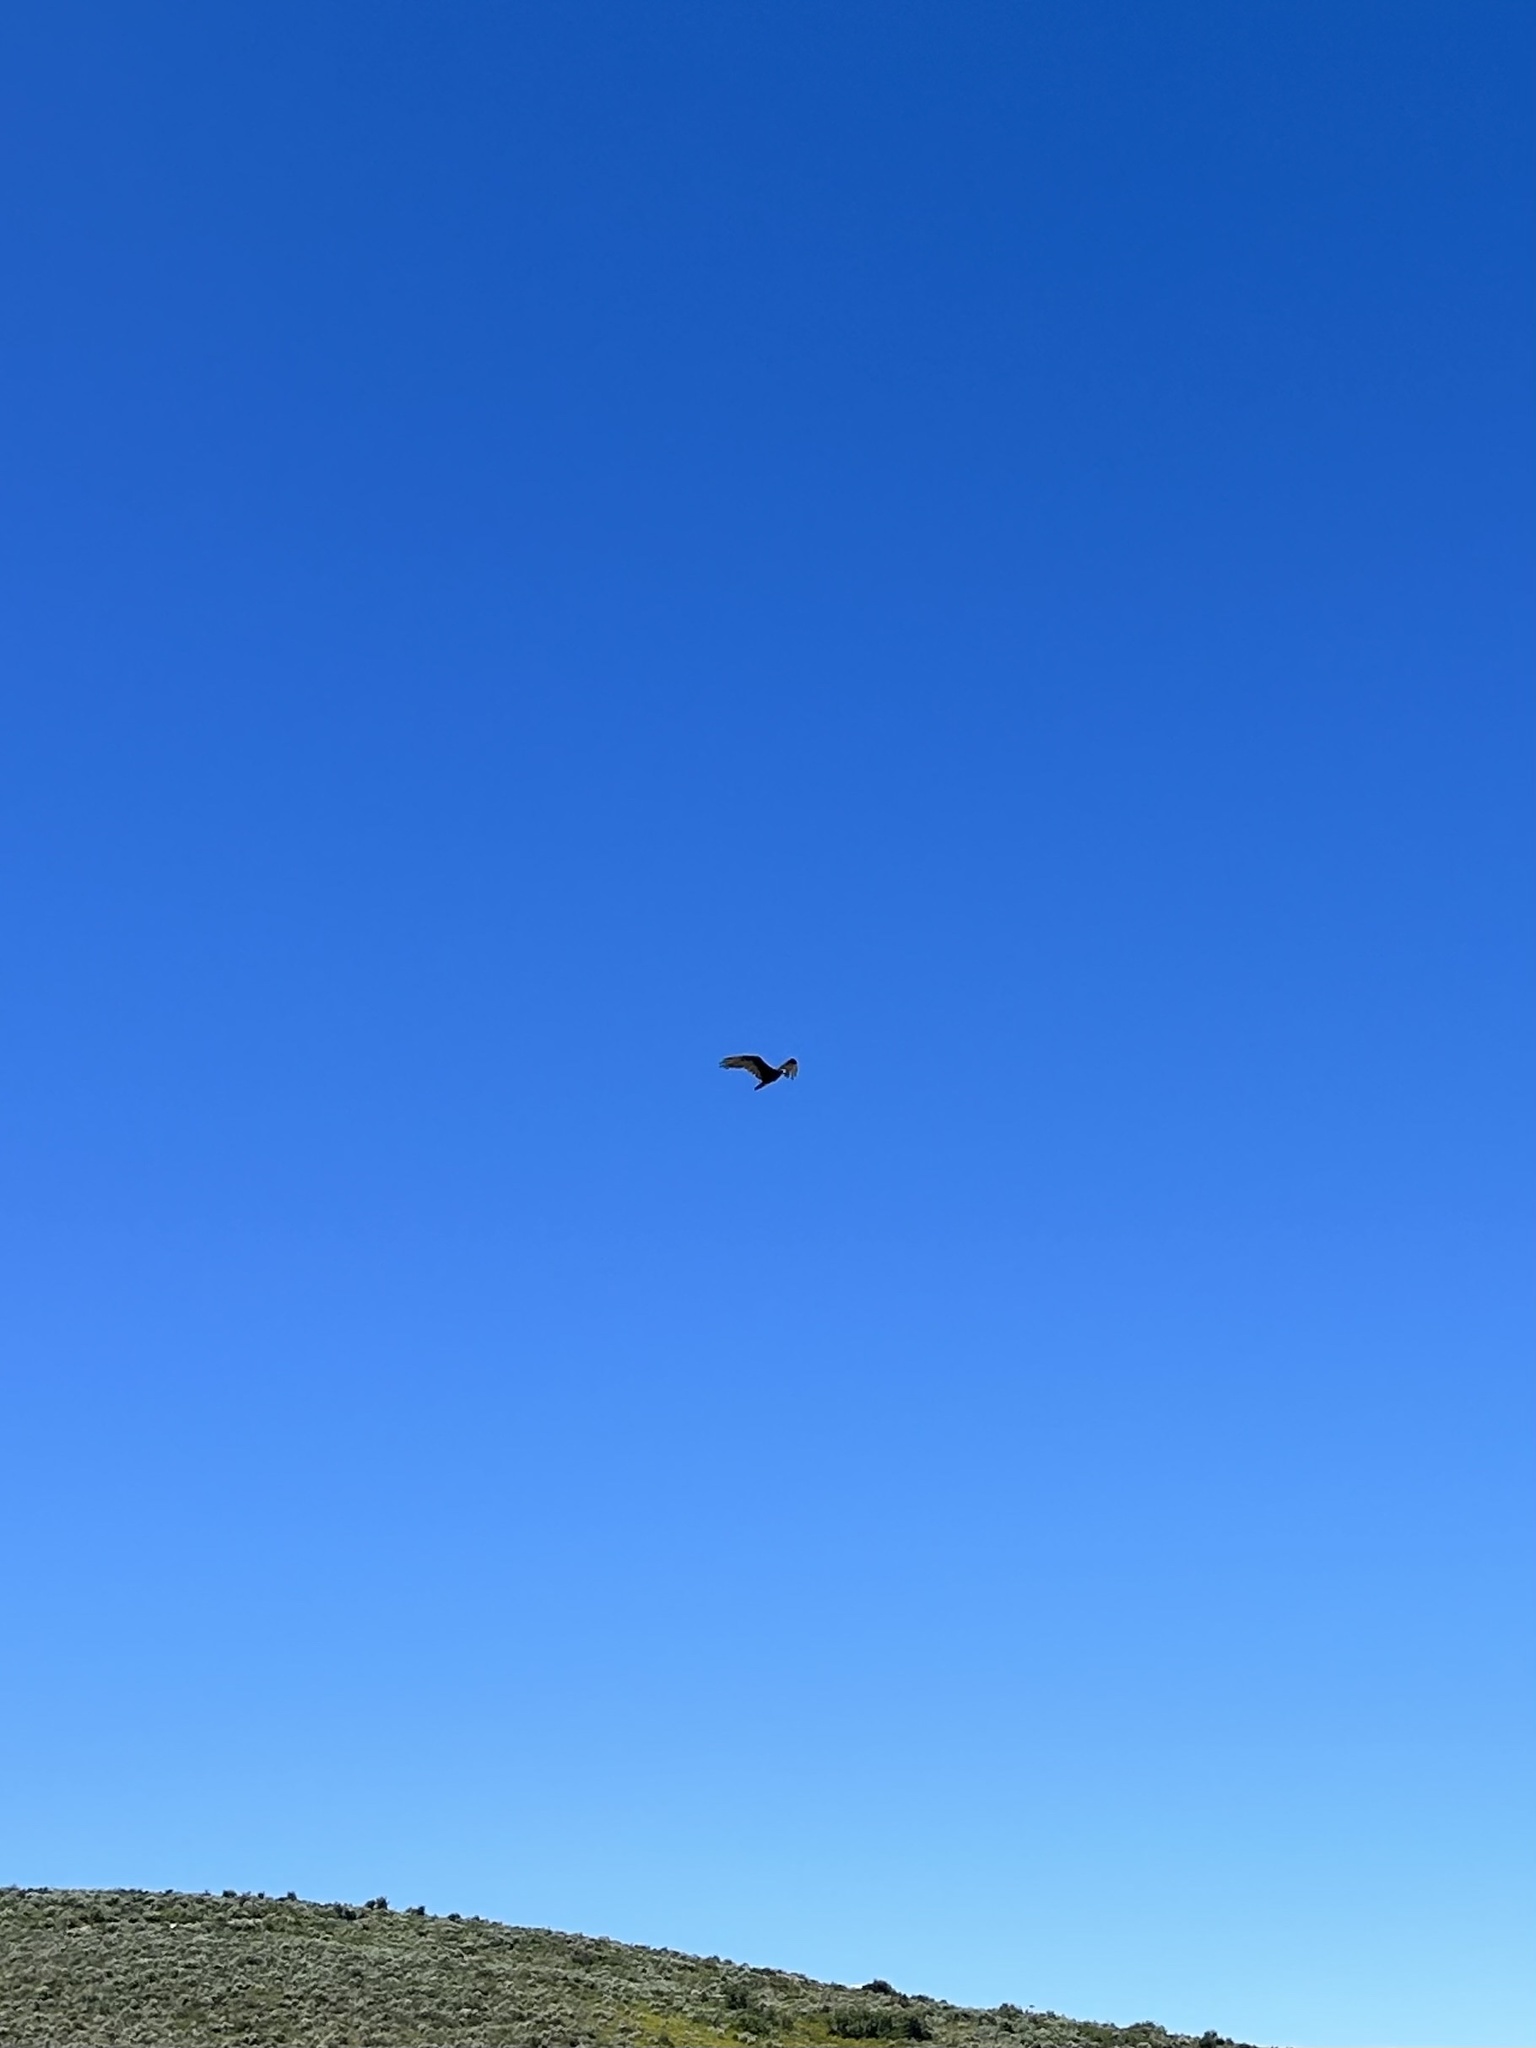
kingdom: Animalia
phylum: Chordata
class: Aves
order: Accipitriformes
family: Cathartidae
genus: Cathartes
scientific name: Cathartes aura
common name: Turkey vulture
